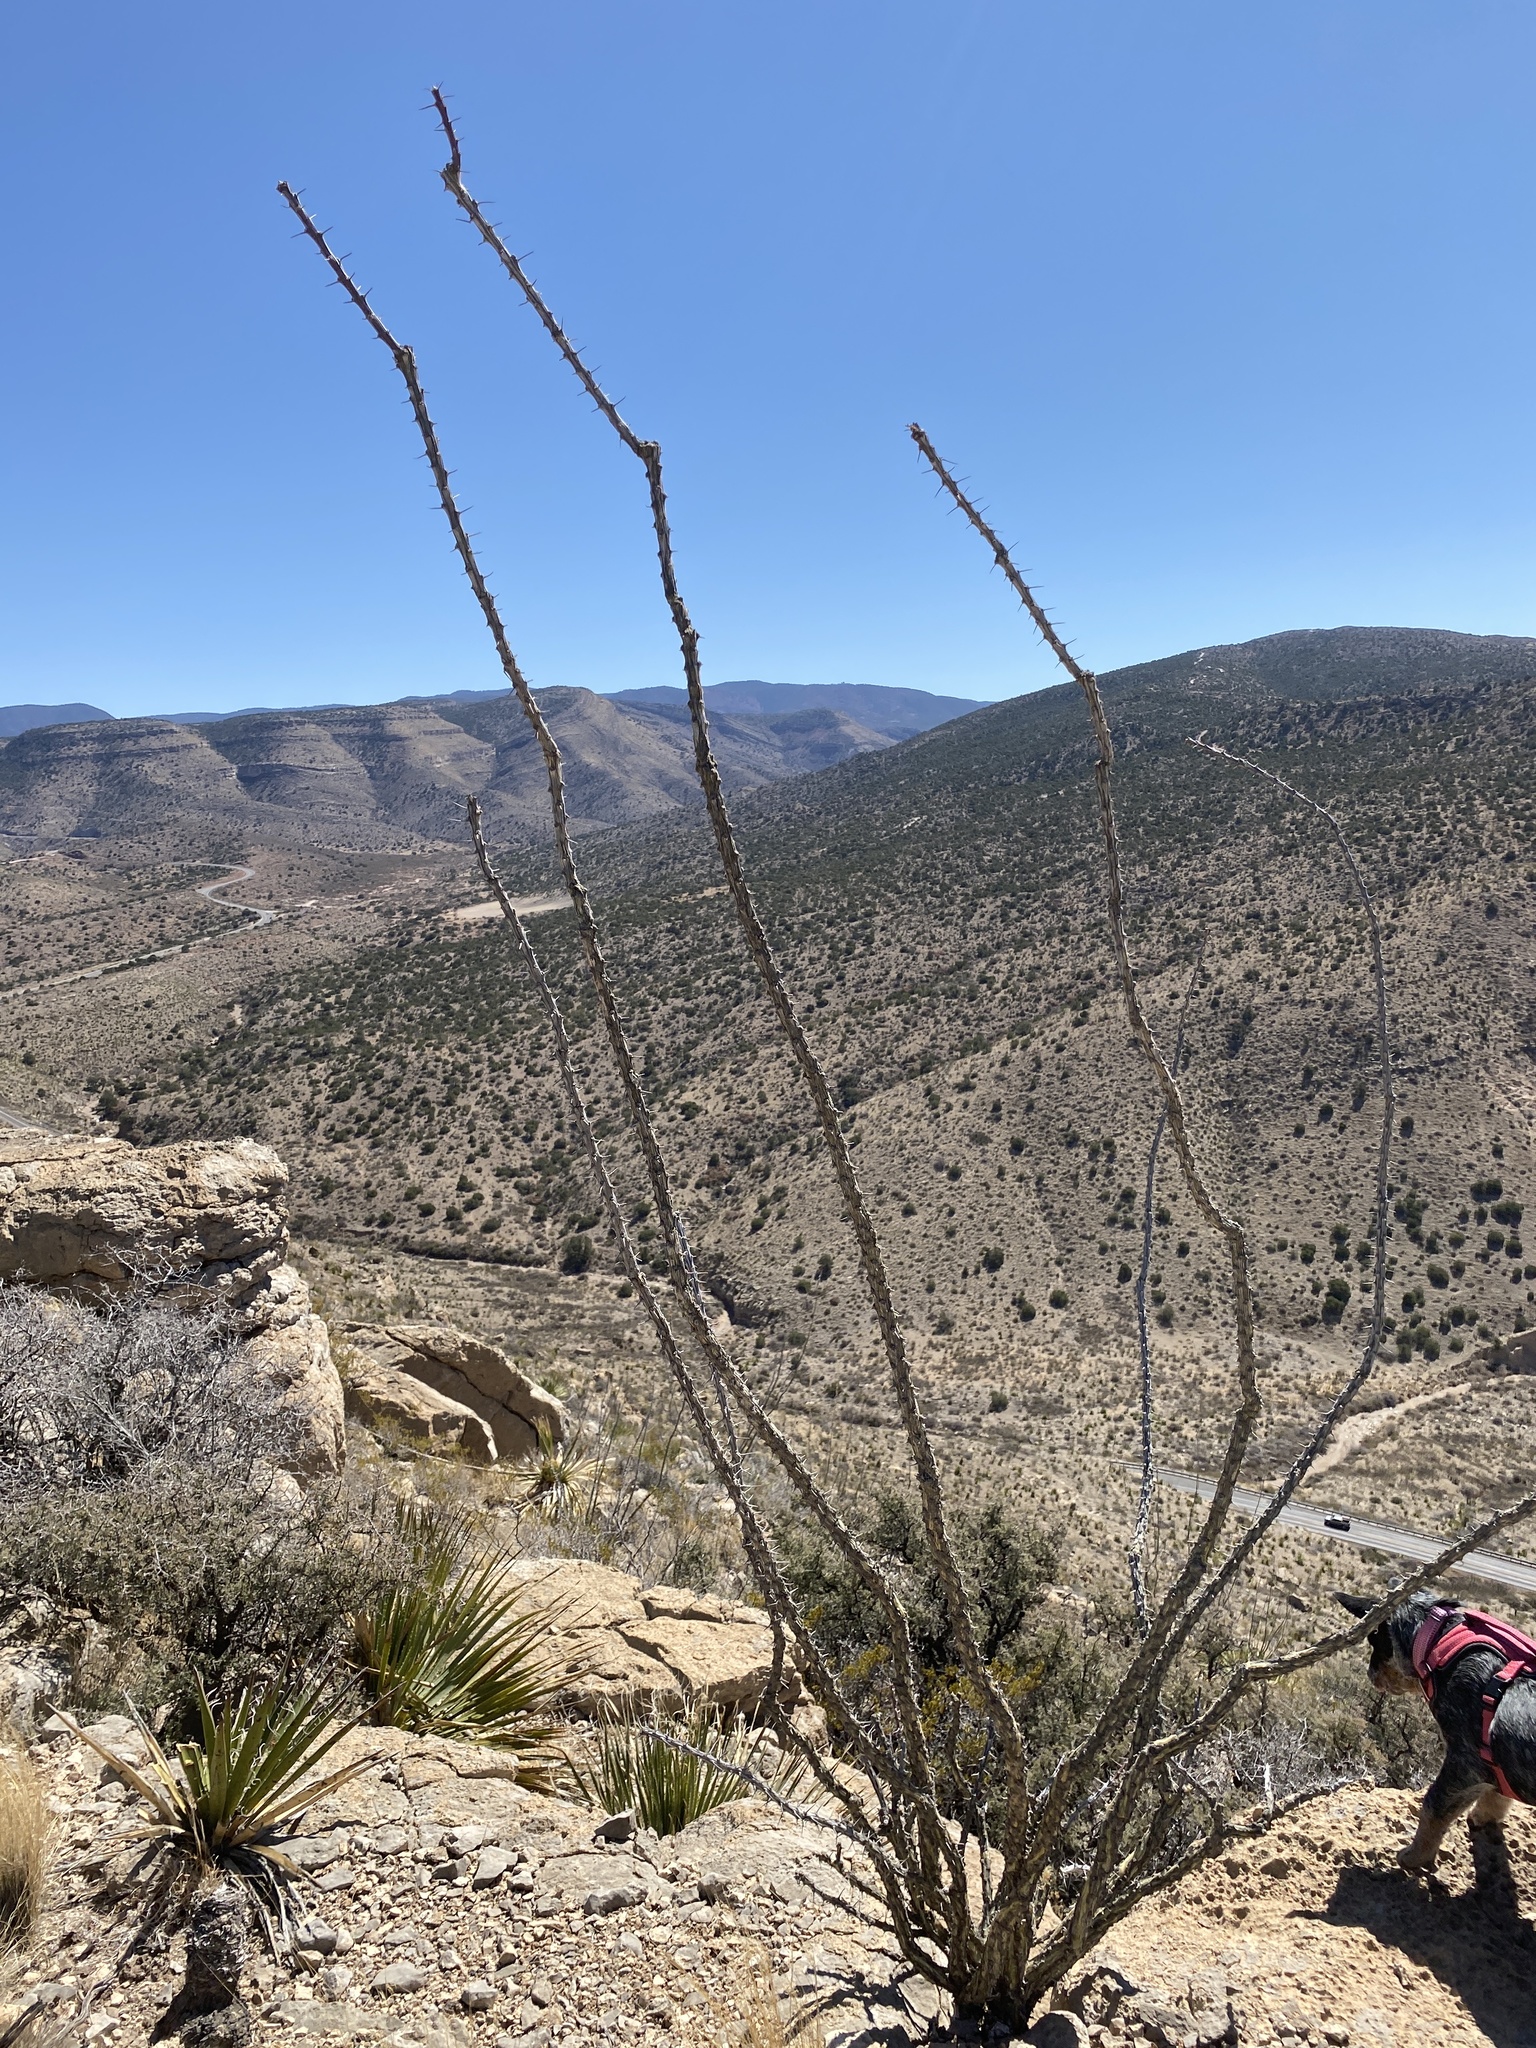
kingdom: Plantae
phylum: Tracheophyta
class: Magnoliopsida
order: Ericales
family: Fouquieriaceae
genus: Fouquieria
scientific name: Fouquieria splendens
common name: Vine-cactus
